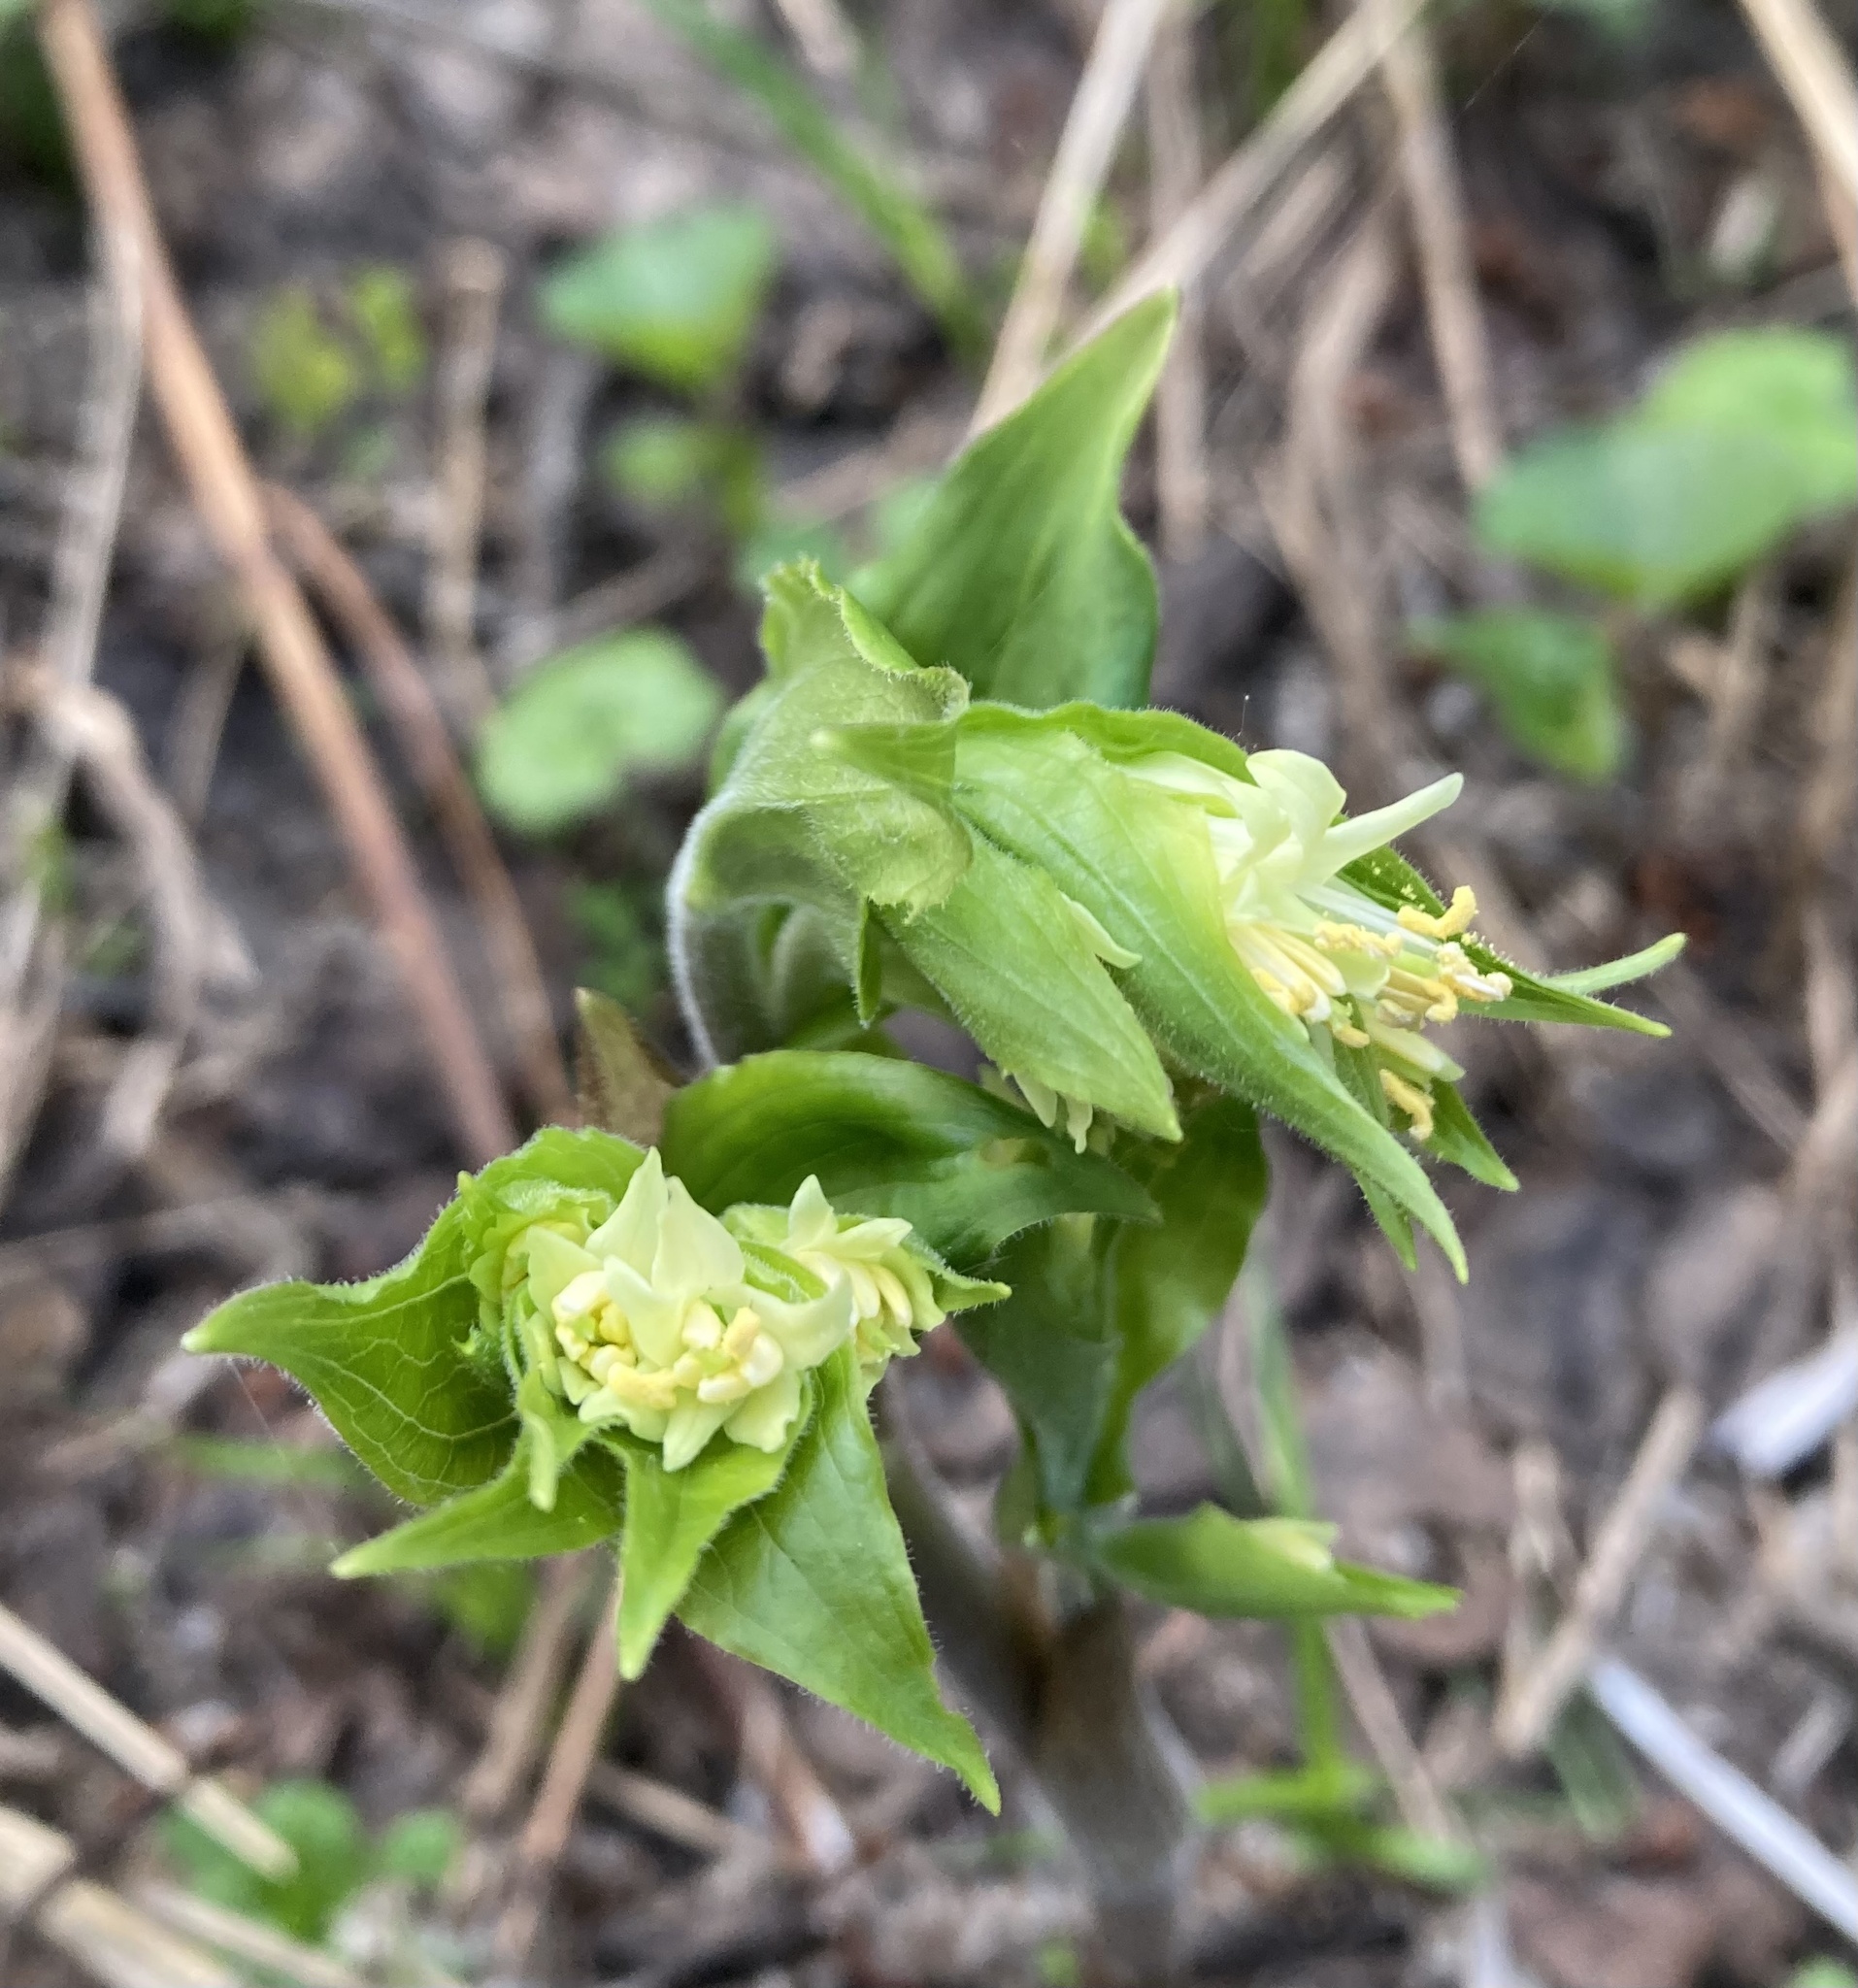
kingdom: Plantae
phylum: Tracheophyta
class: Liliopsida
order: Liliales
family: Liliaceae
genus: Prosartes
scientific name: Prosartes trachycarpa
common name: Rough-fruit fairy-bells
